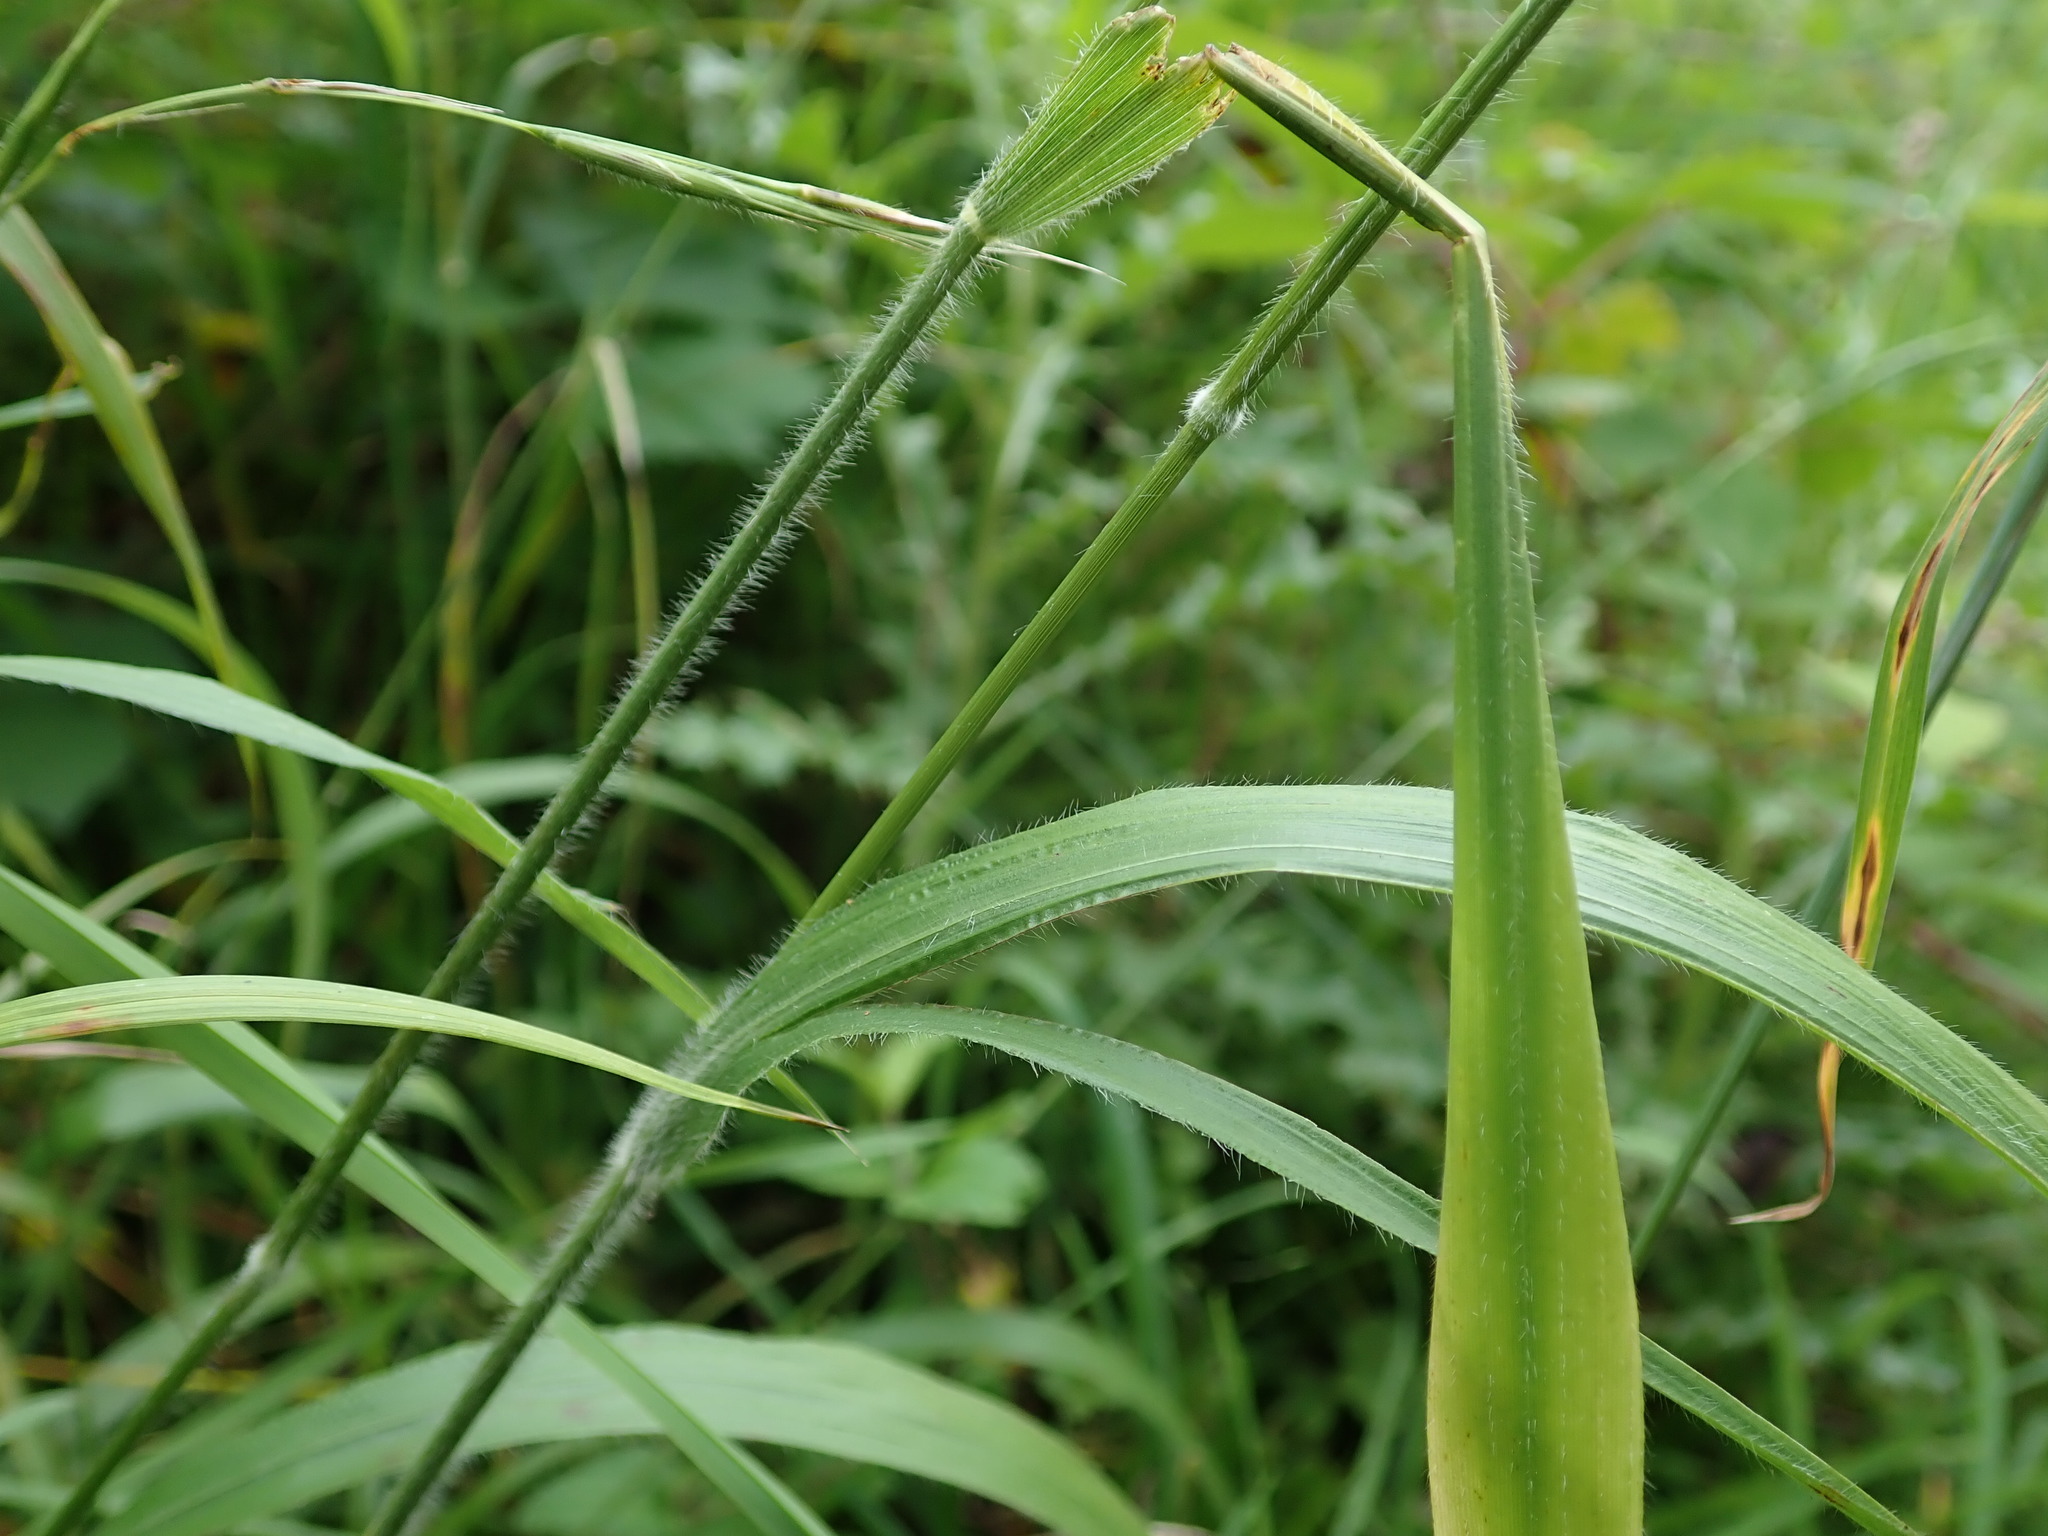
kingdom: Plantae
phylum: Tracheophyta
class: Liliopsida
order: Poales
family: Poaceae
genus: Brachypodium
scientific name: Brachypodium sylvaticum
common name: False-brome
